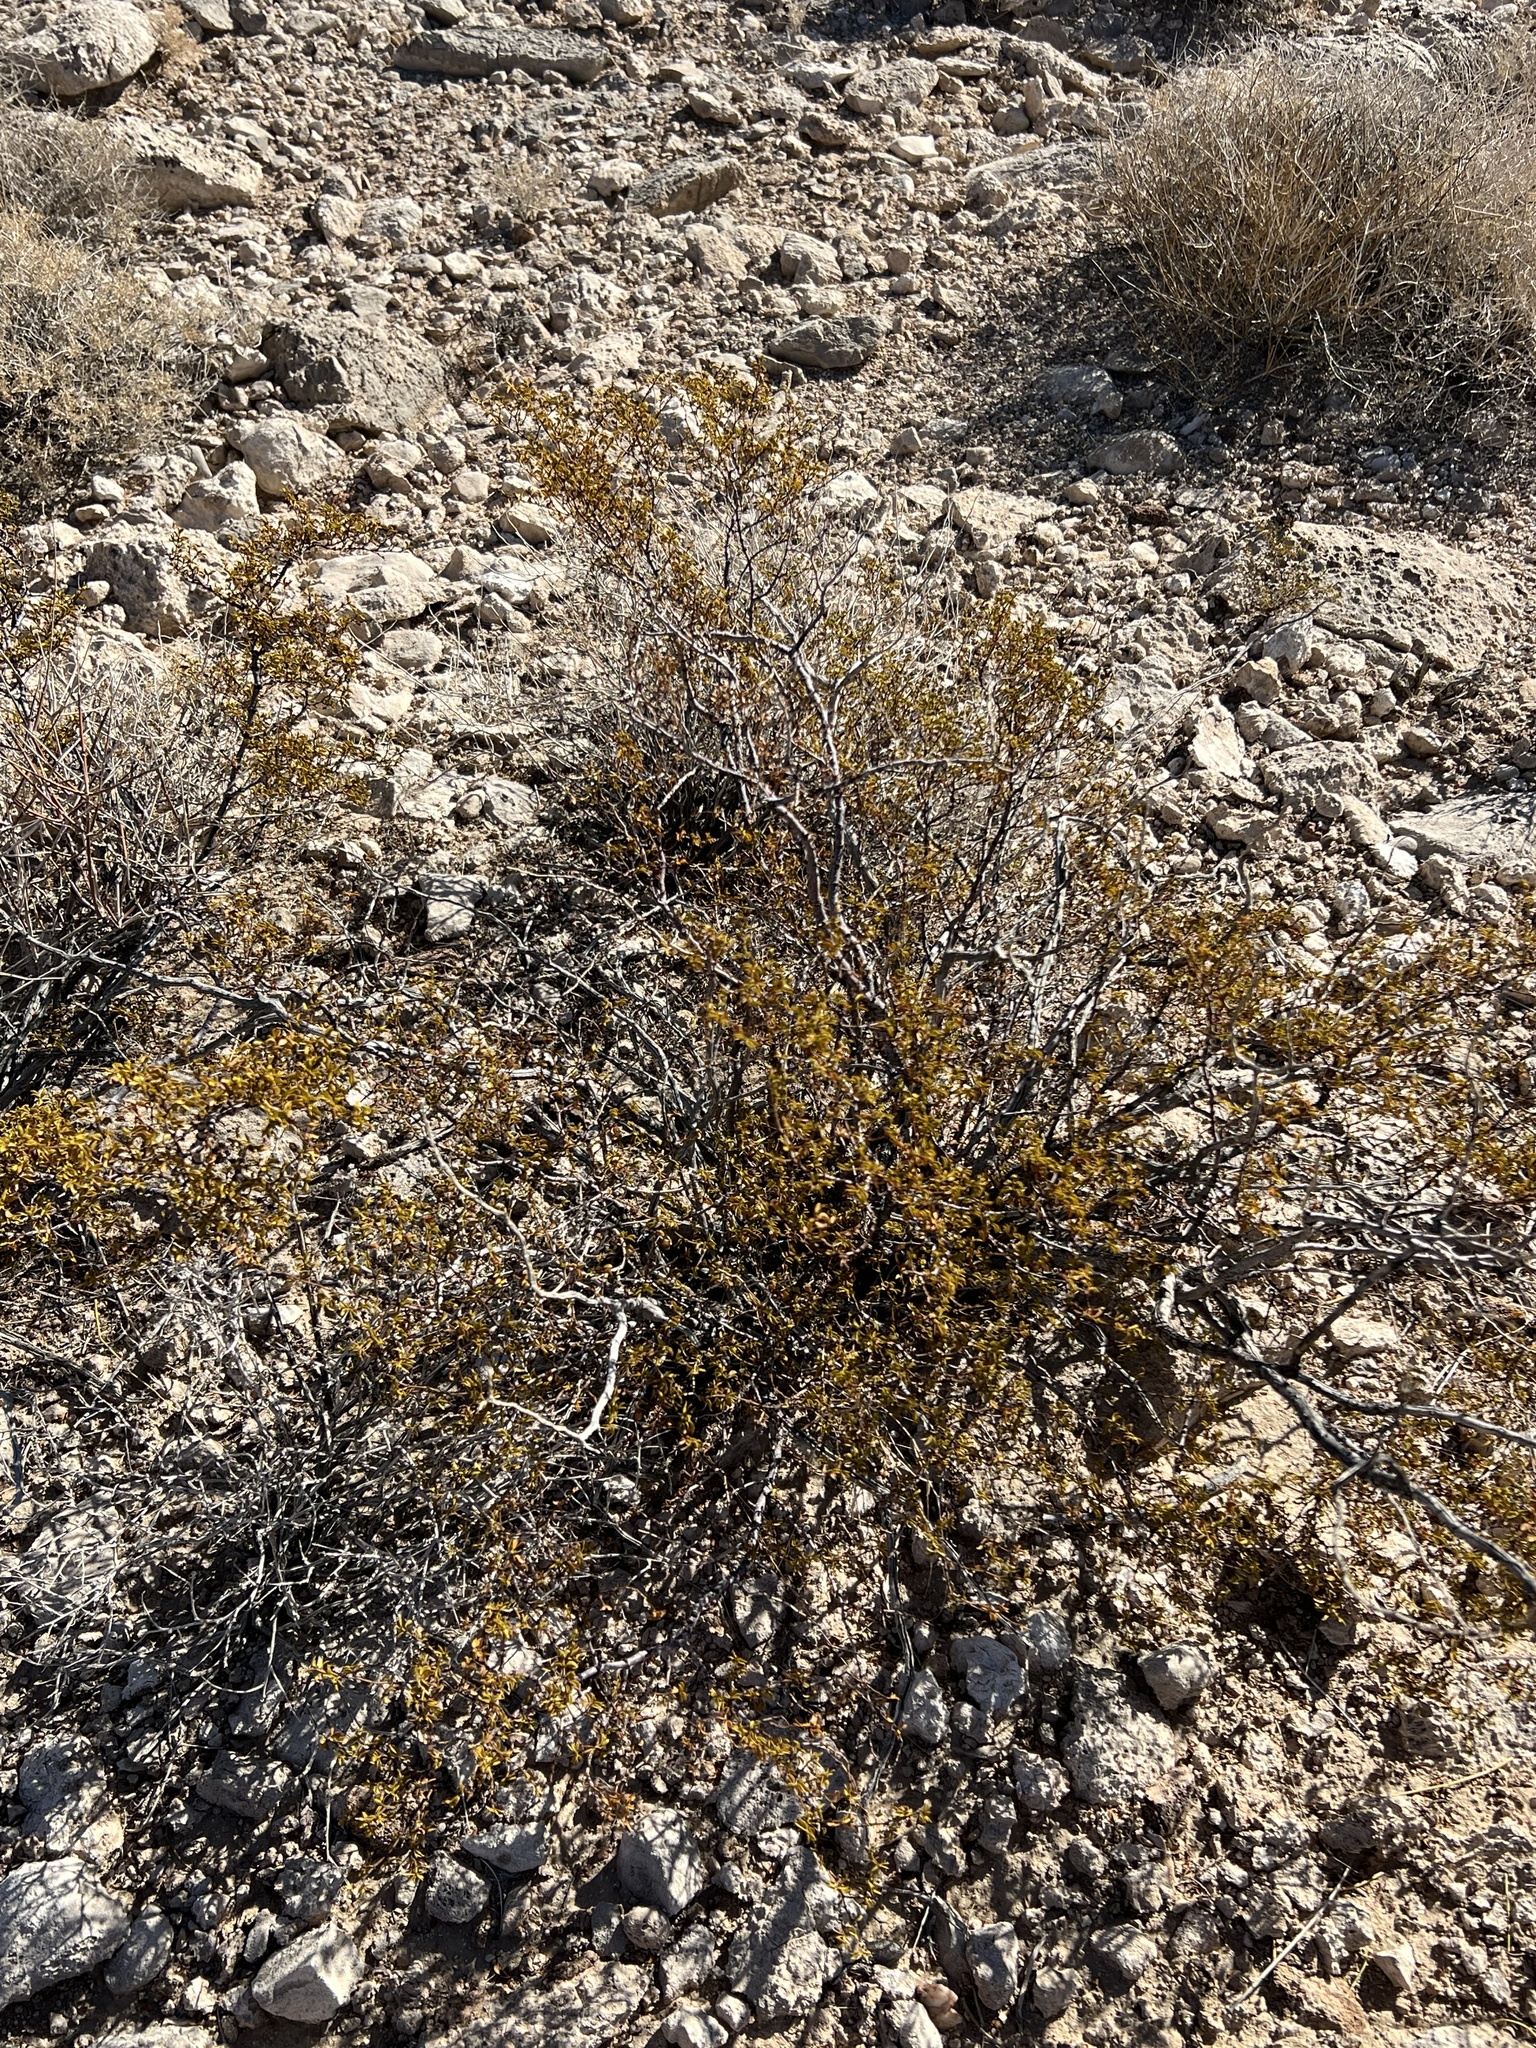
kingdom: Plantae
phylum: Tracheophyta
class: Magnoliopsida
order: Zygophyllales
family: Zygophyllaceae
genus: Larrea
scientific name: Larrea tridentata
